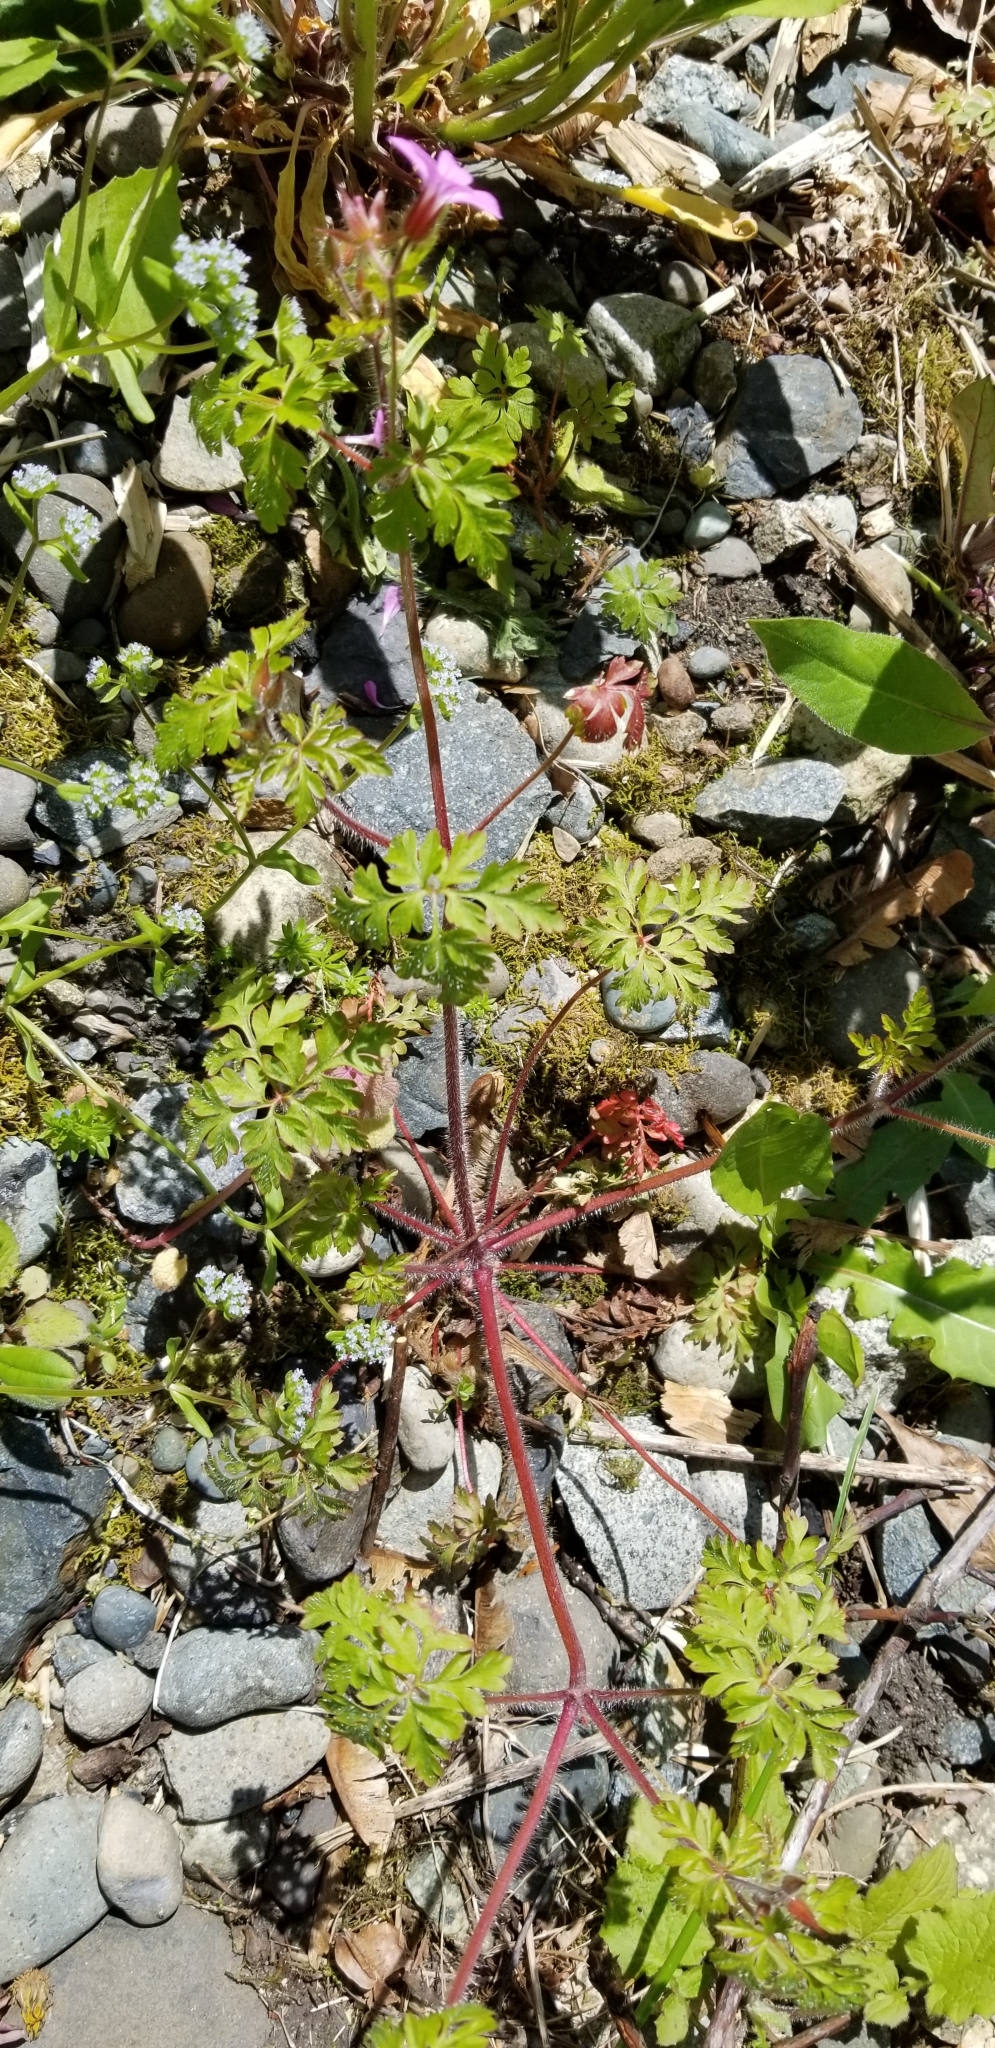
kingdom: Plantae
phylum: Tracheophyta
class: Magnoliopsida
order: Geraniales
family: Geraniaceae
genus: Geranium
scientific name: Geranium robertianum
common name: Herb-robert
